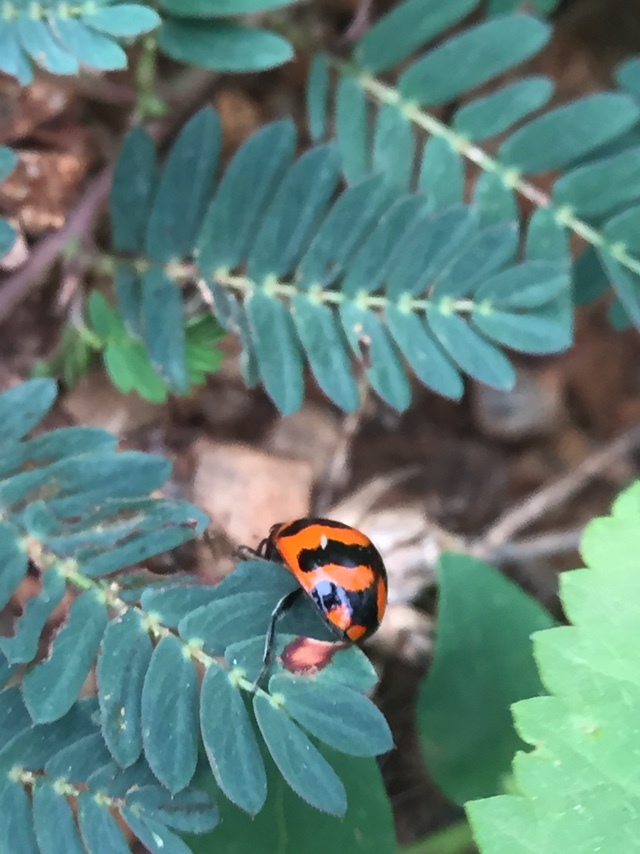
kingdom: Animalia
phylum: Arthropoda
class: Insecta
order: Coleoptera
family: Coccinellidae
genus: Coccinella
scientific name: Coccinella transversalis
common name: Transverse lady beetle
